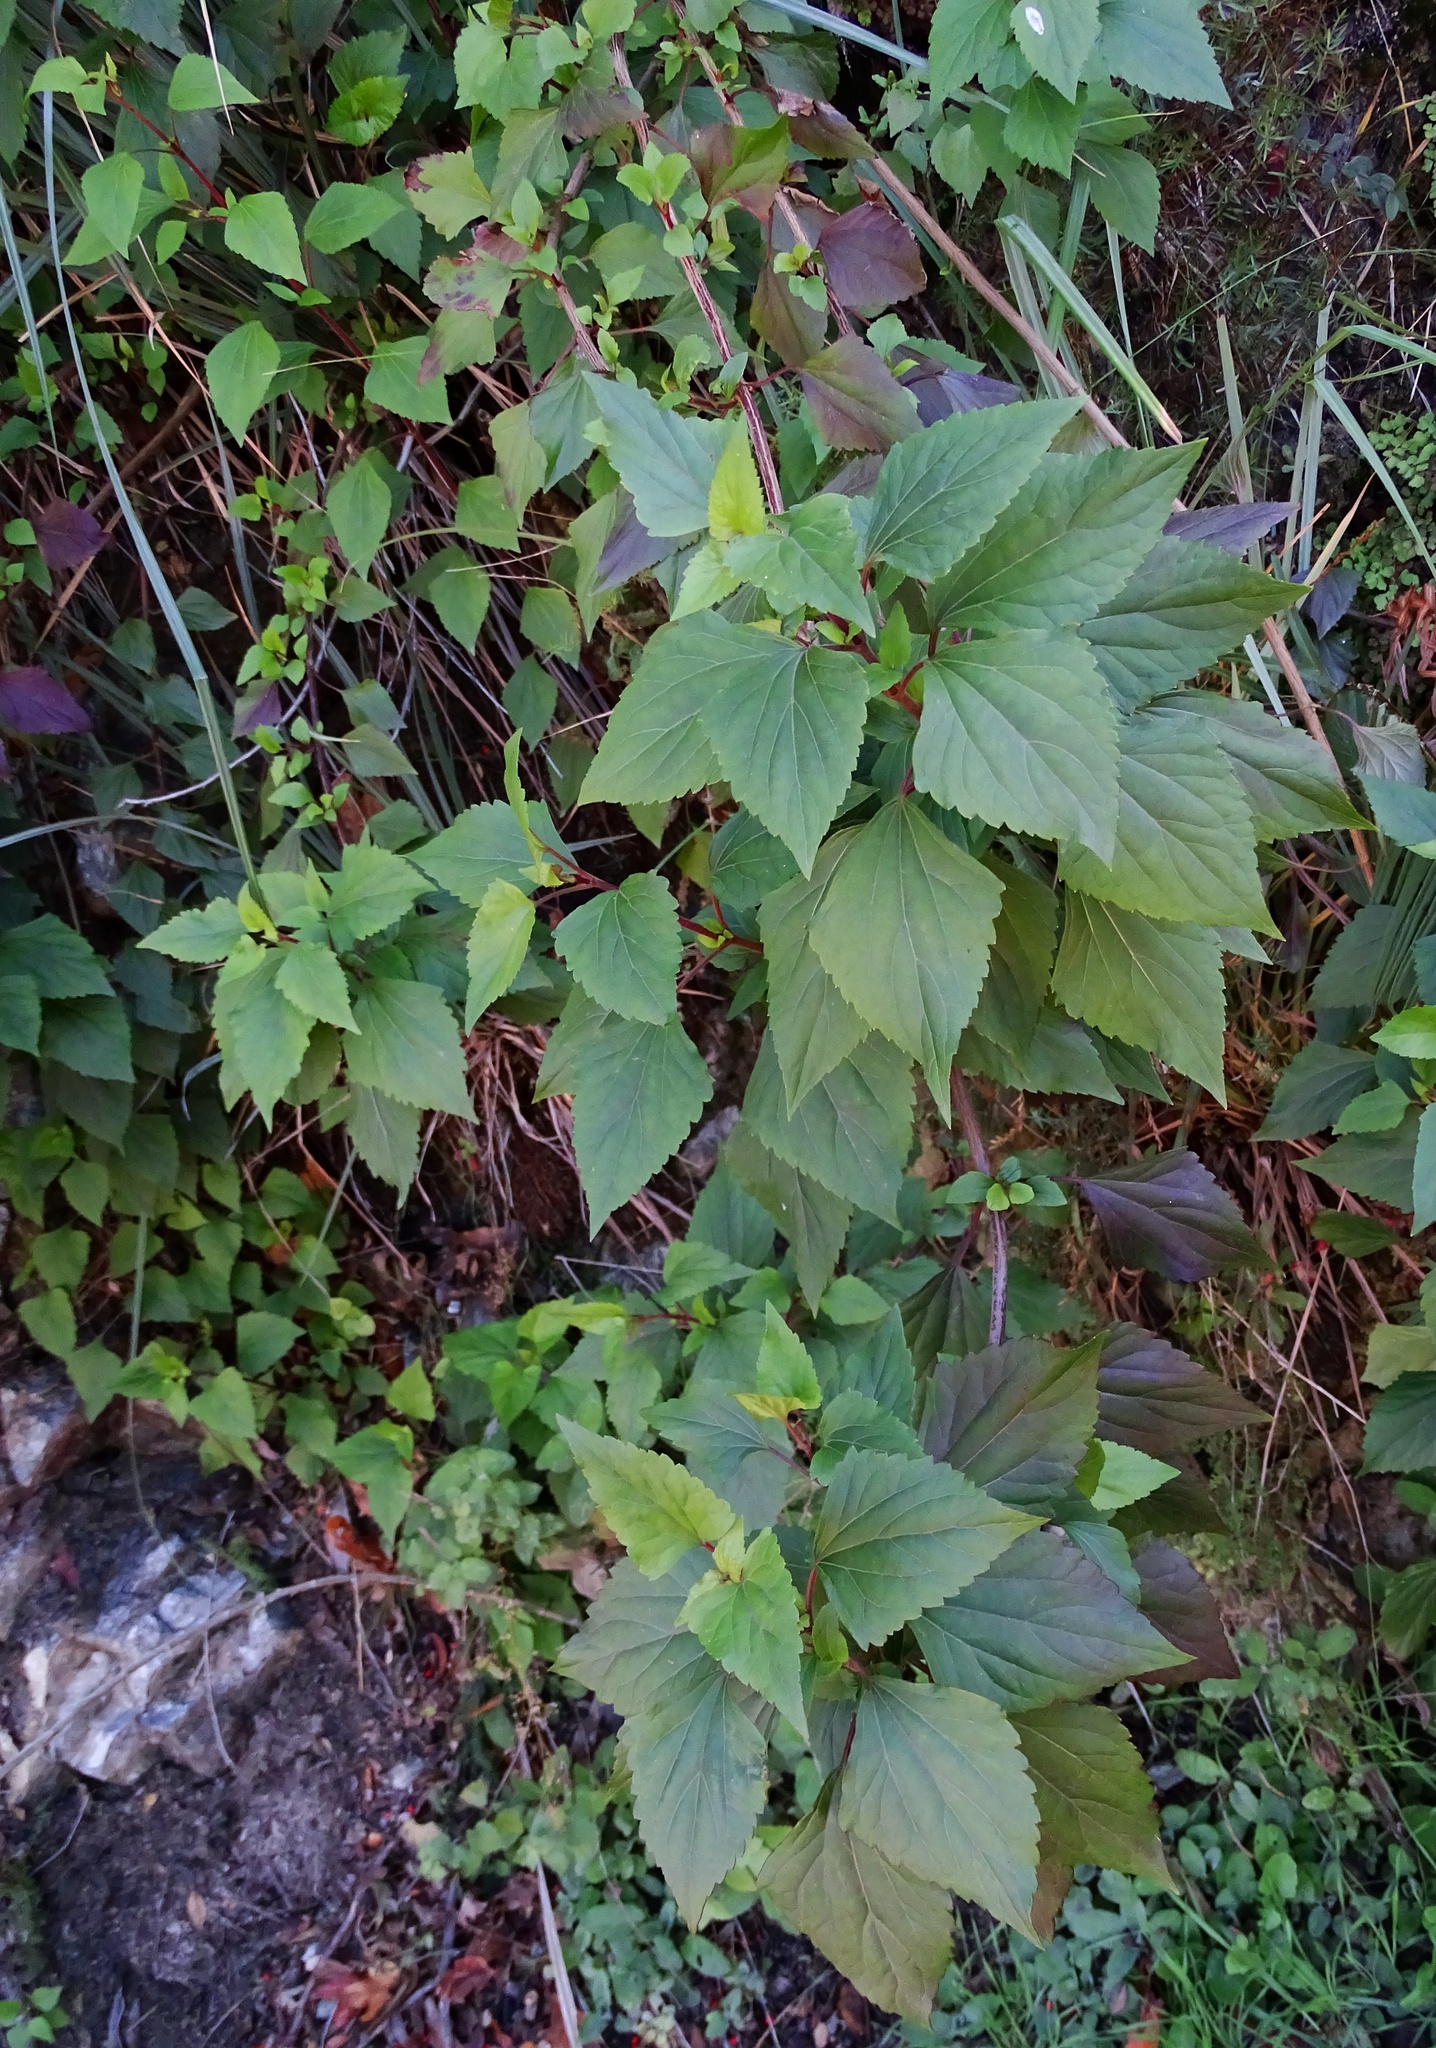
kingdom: Plantae
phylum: Tracheophyta
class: Magnoliopsida
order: Asterales
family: Asteraceae
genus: Ageratina
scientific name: Ageratina adenophora
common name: Sticky snakeroot
